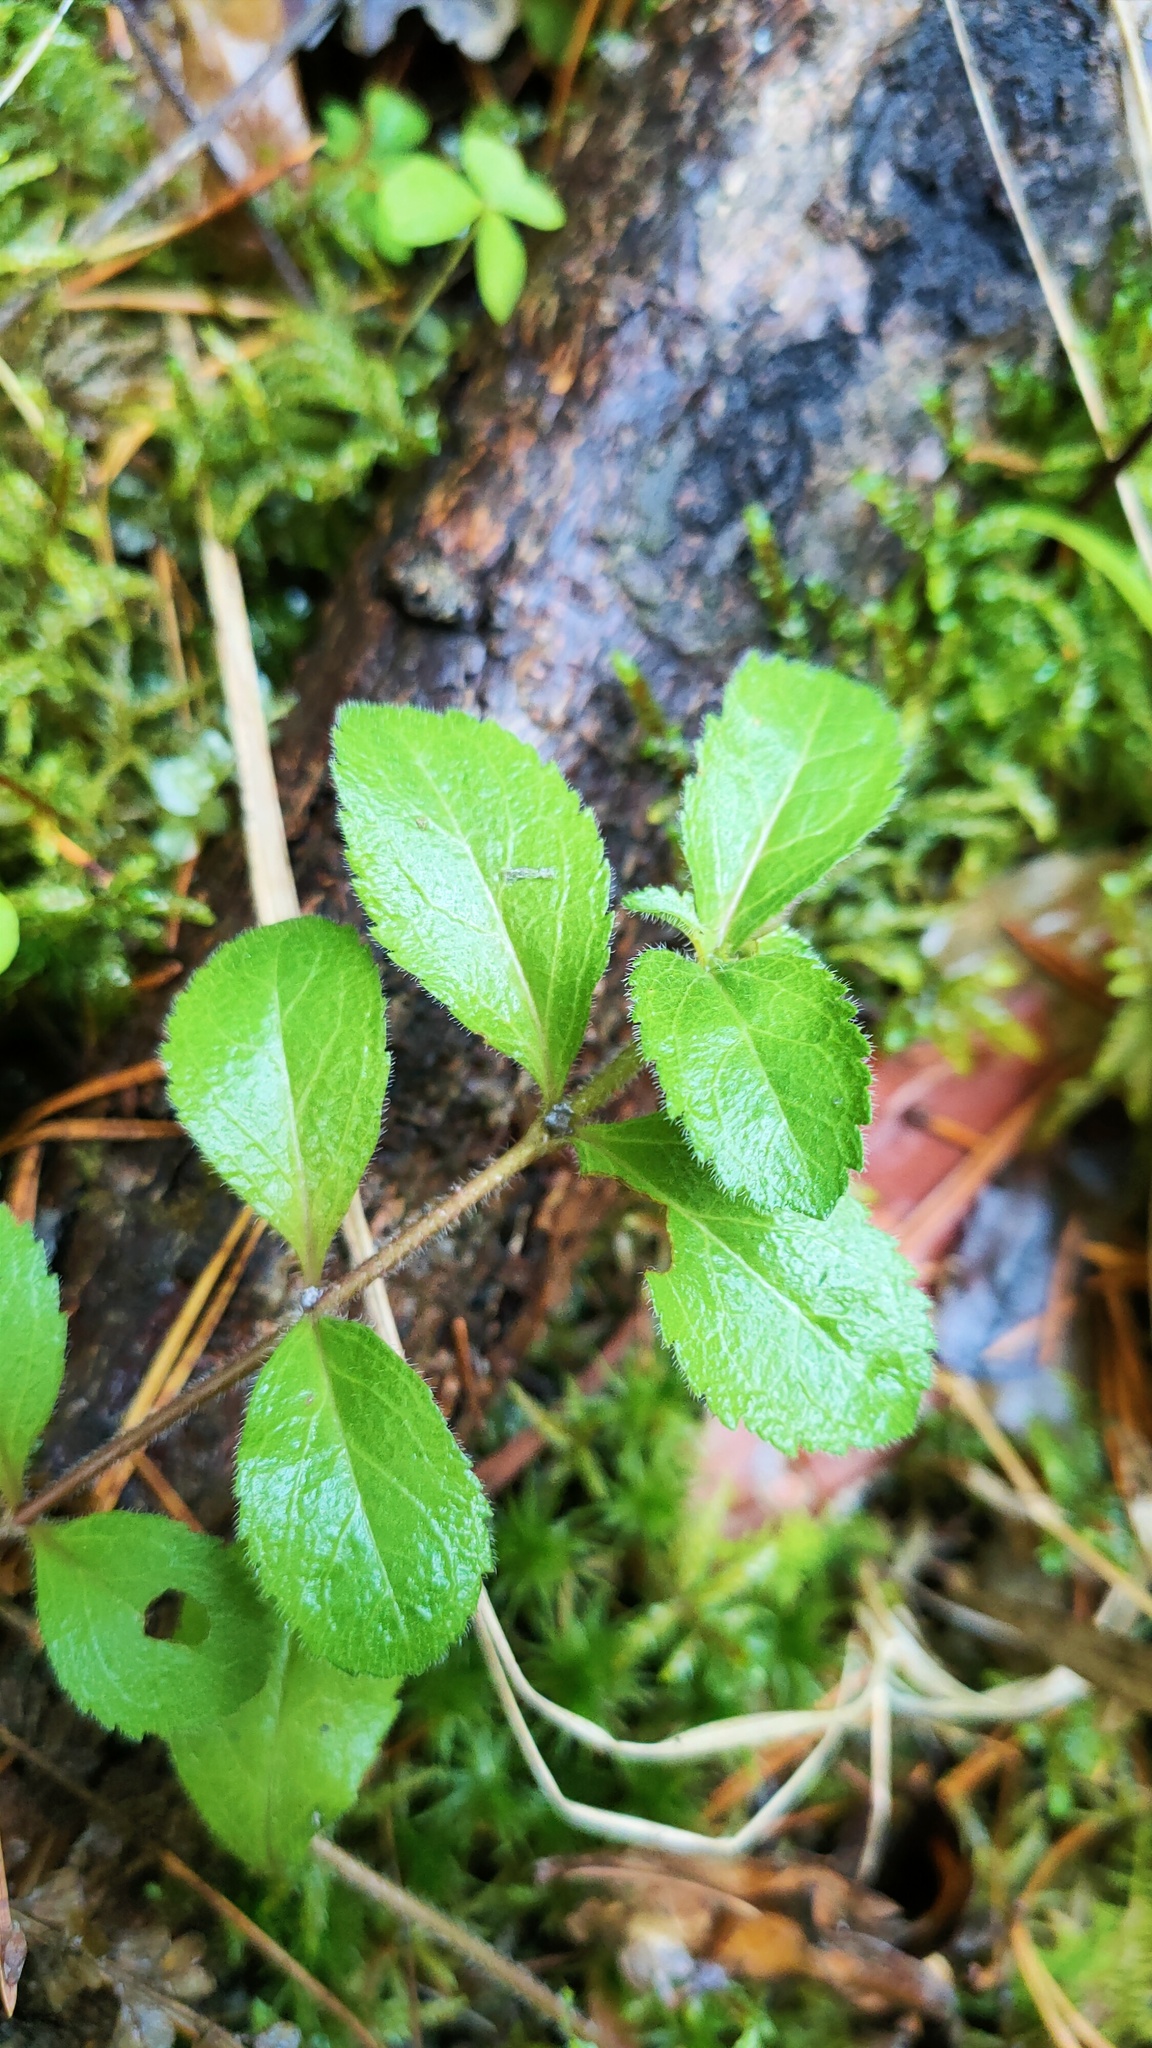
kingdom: Plantae
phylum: Tracheophyta
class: Magnoliopsida
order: Lamiales
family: Plantaginaceae
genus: Veronica
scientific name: Veronica officinalis
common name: Common speedwell
